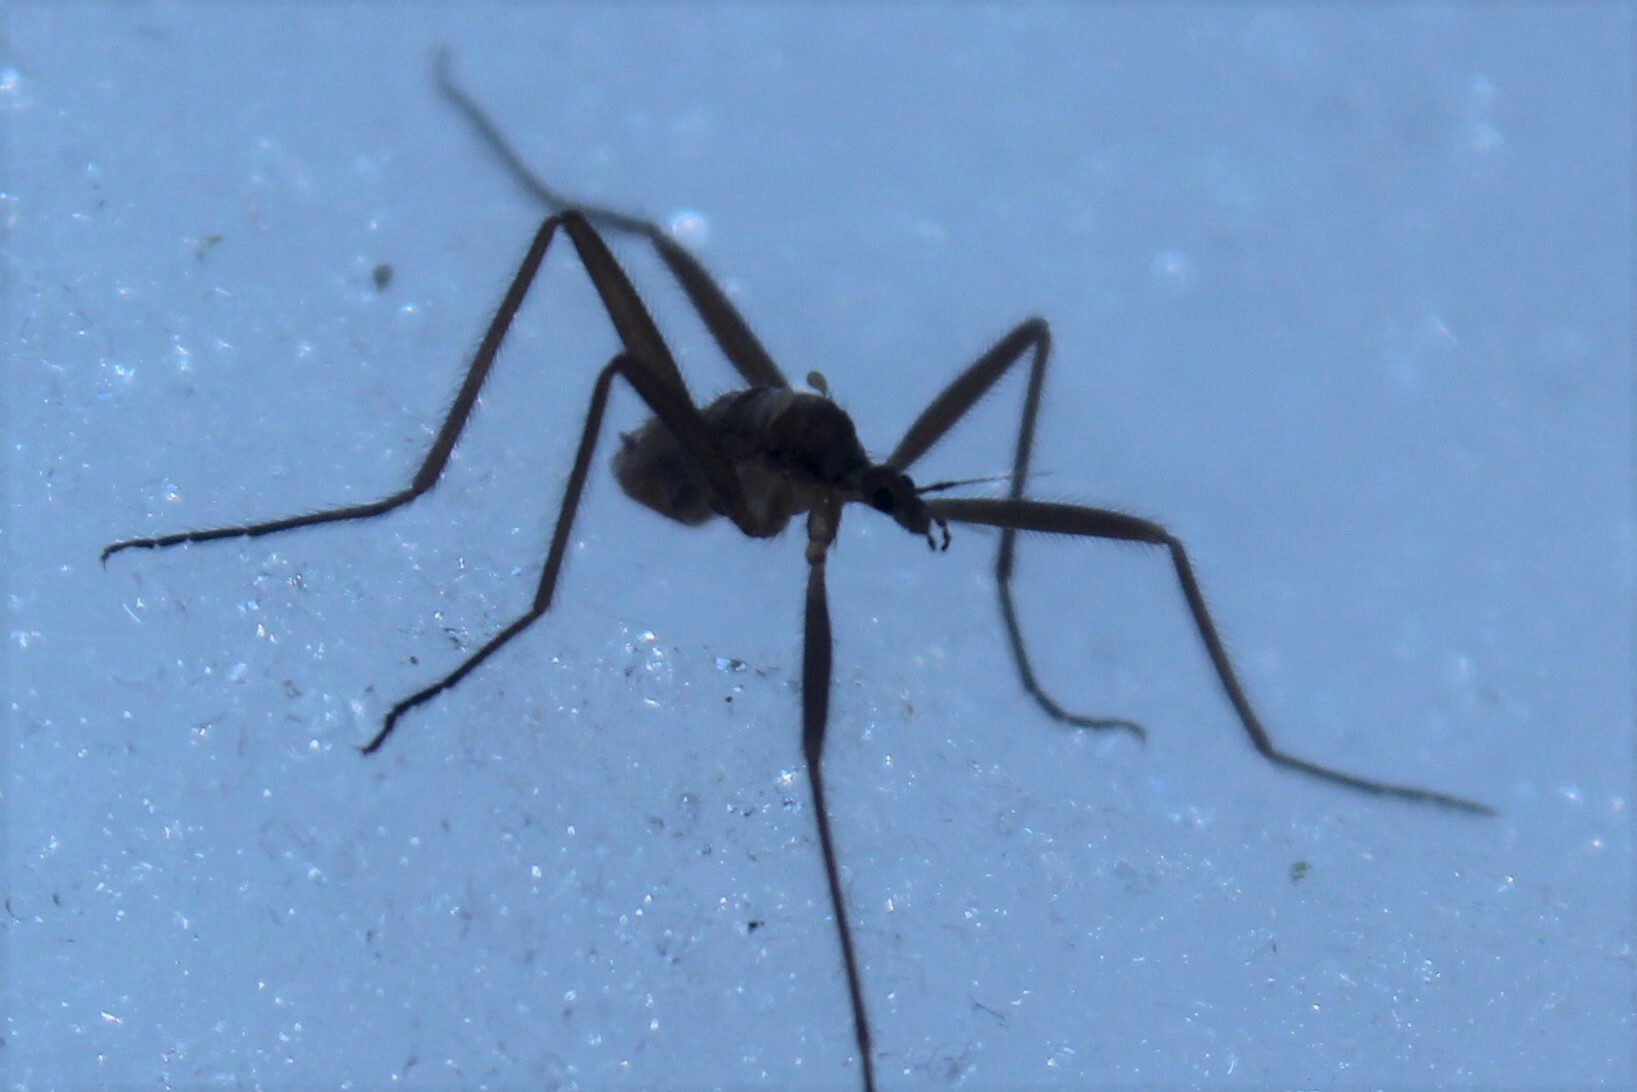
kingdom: Animalia
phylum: Arthropoda
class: Insecta
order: Diptera
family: Limoniidae
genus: Chionea
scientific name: Chionea
